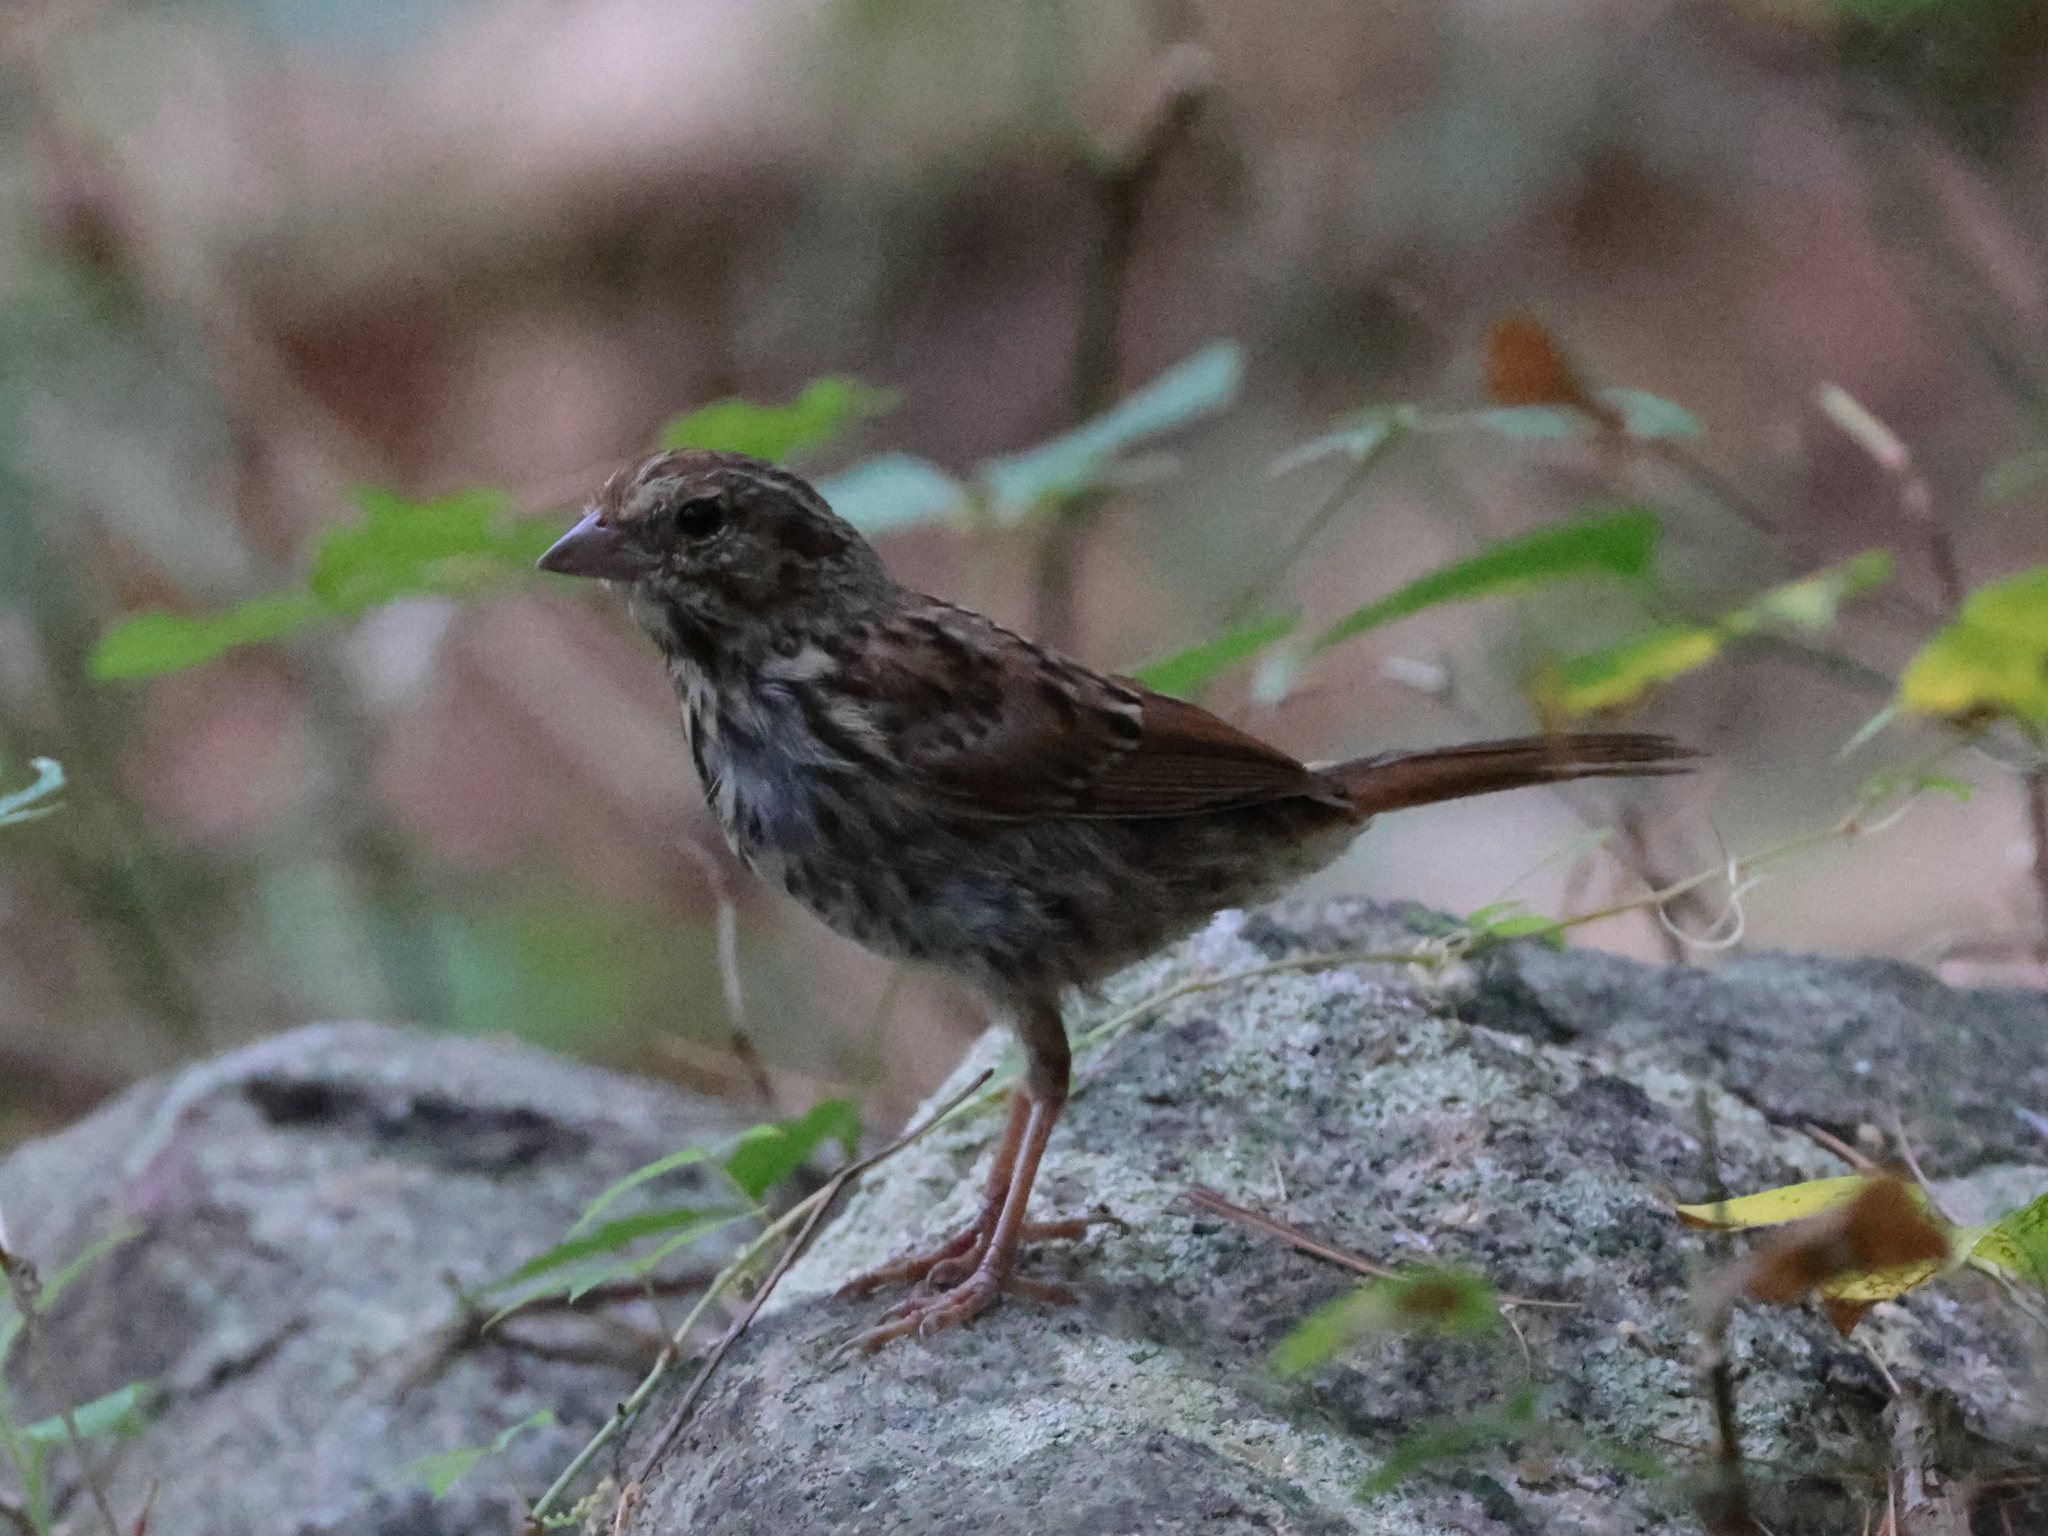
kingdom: Animalia
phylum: Chordata
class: Aves
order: Passeriformes
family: Passerellidae
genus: Melospiza
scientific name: Melospiza melodia
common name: Song sparrow
